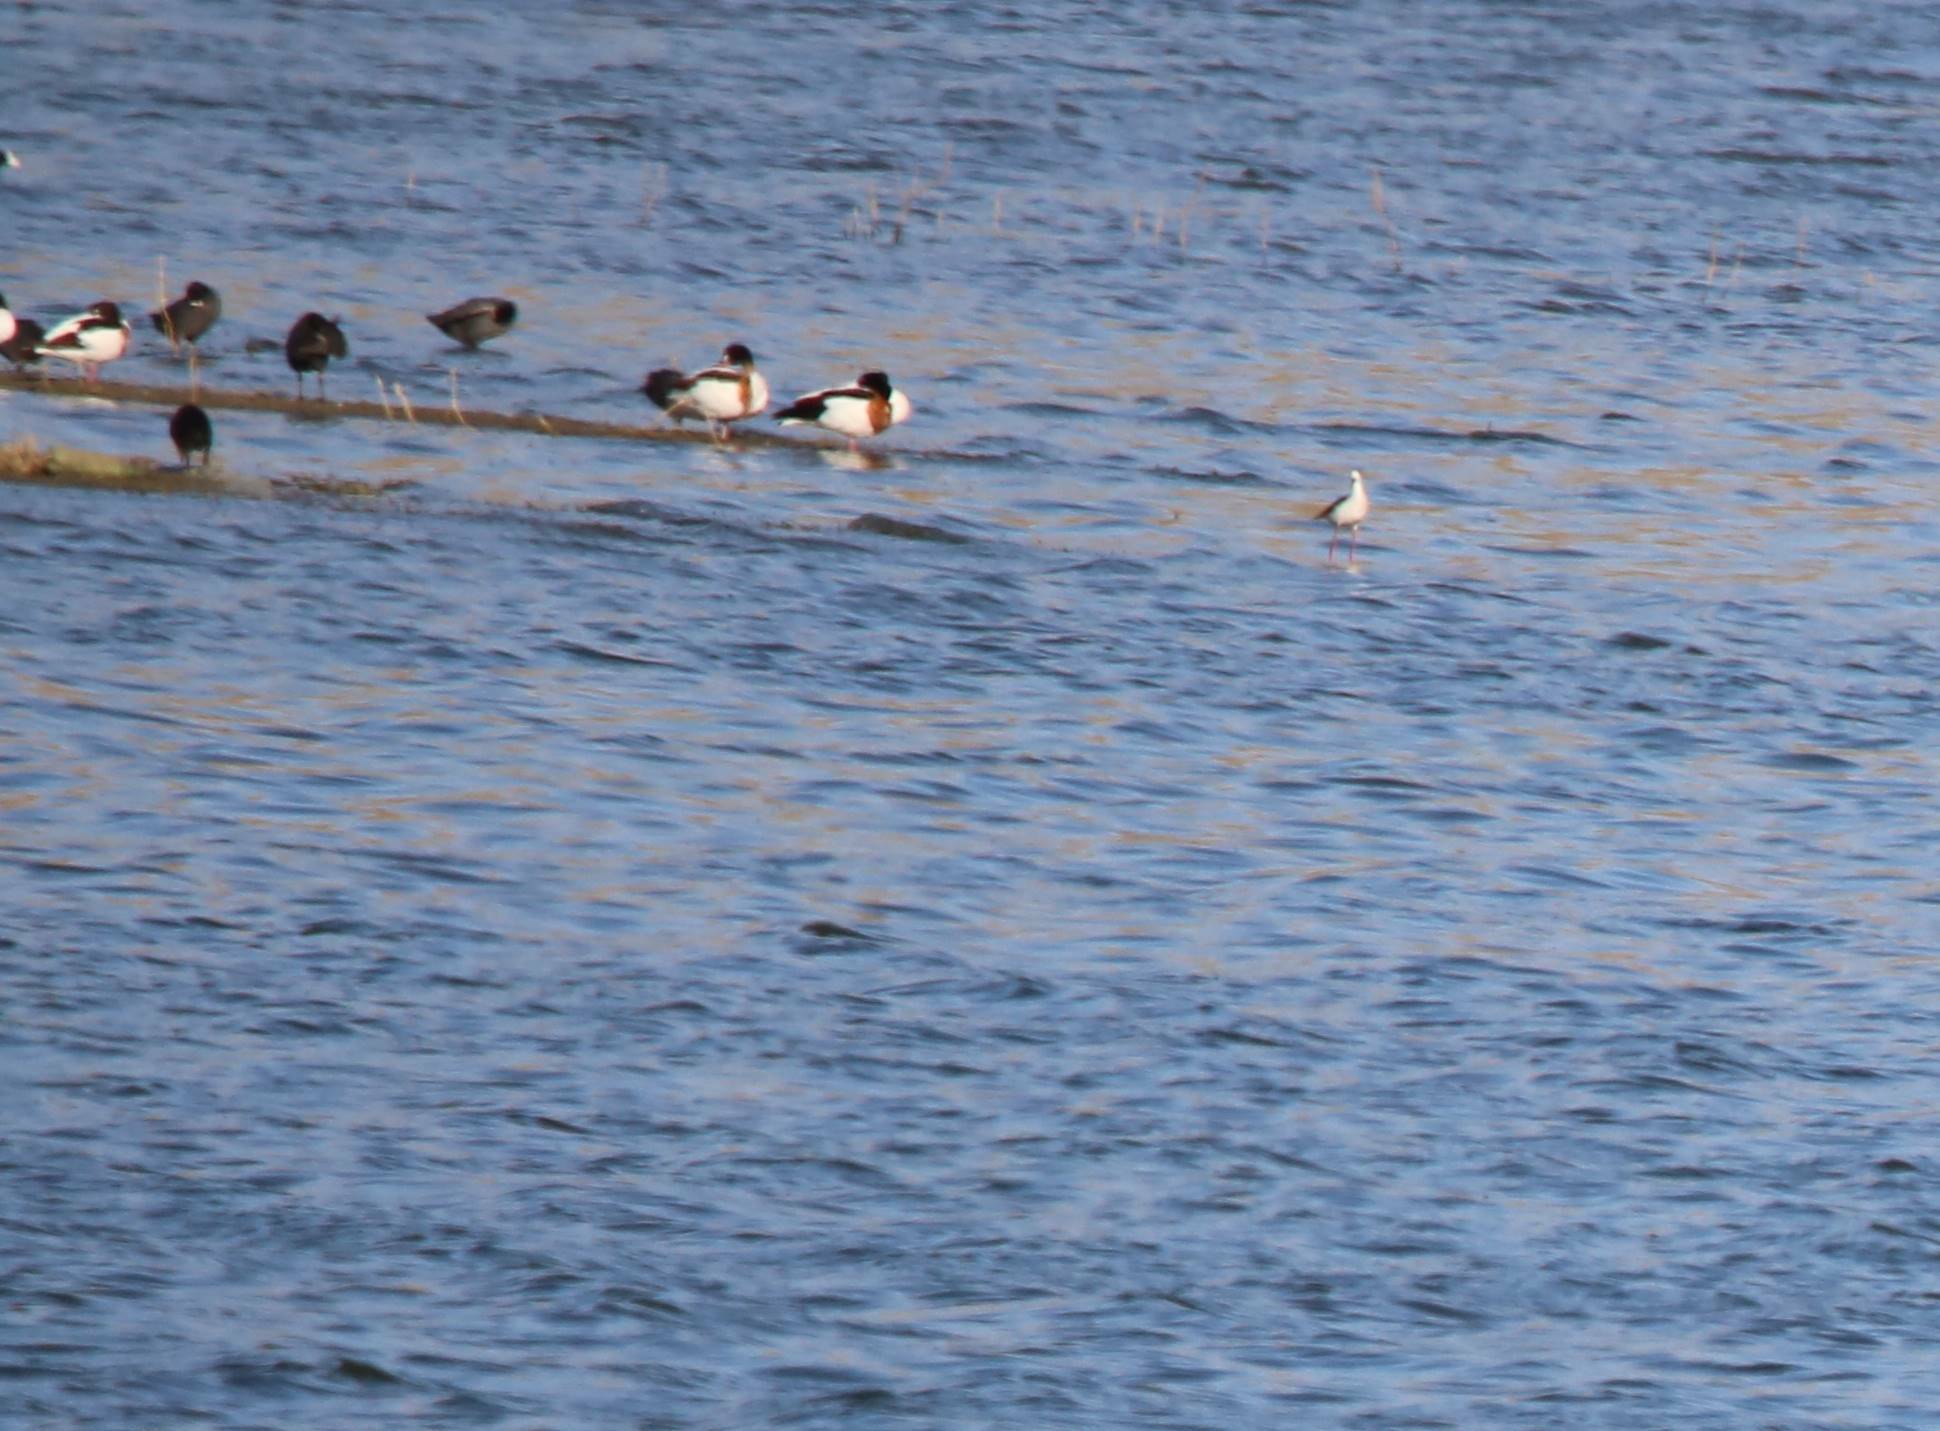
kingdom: Animalia
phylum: Chordata
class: Aves
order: Anseriformes
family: Anatidae
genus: Tadorna
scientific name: Tadorna tadorna
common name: Common shelduck
